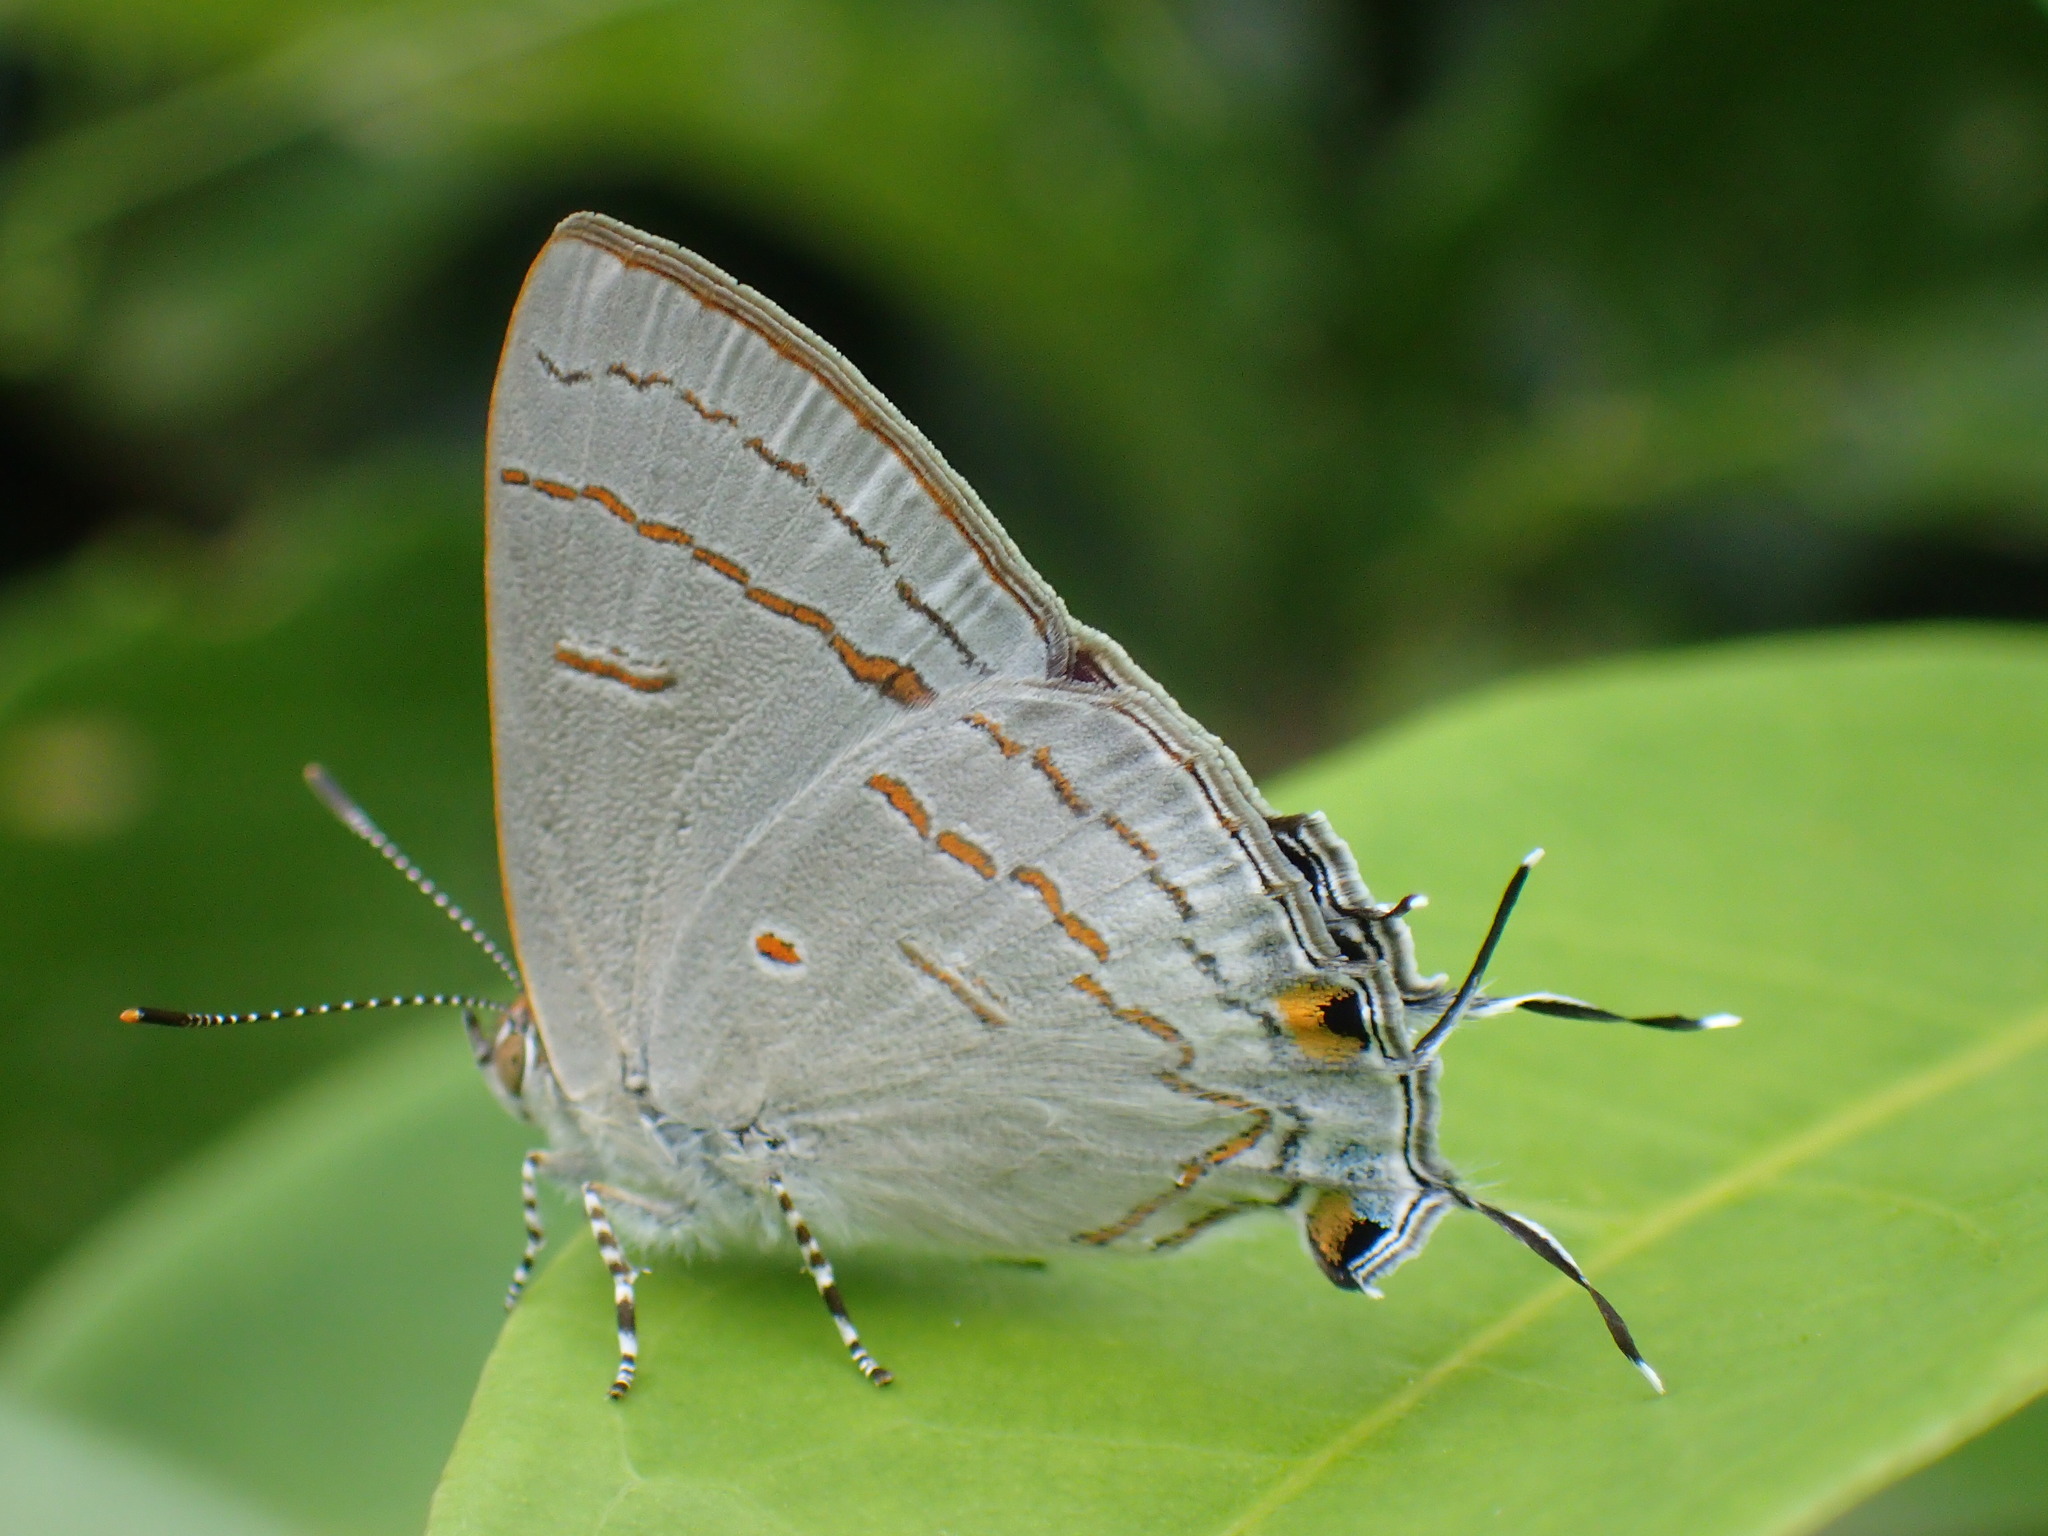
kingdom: Animalia
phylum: Arthropoda
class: Insecta
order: Lepidoptera
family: Lycaenidae
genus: Hypolycaena
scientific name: Hypolycaena philippus
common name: Common hairstreak
